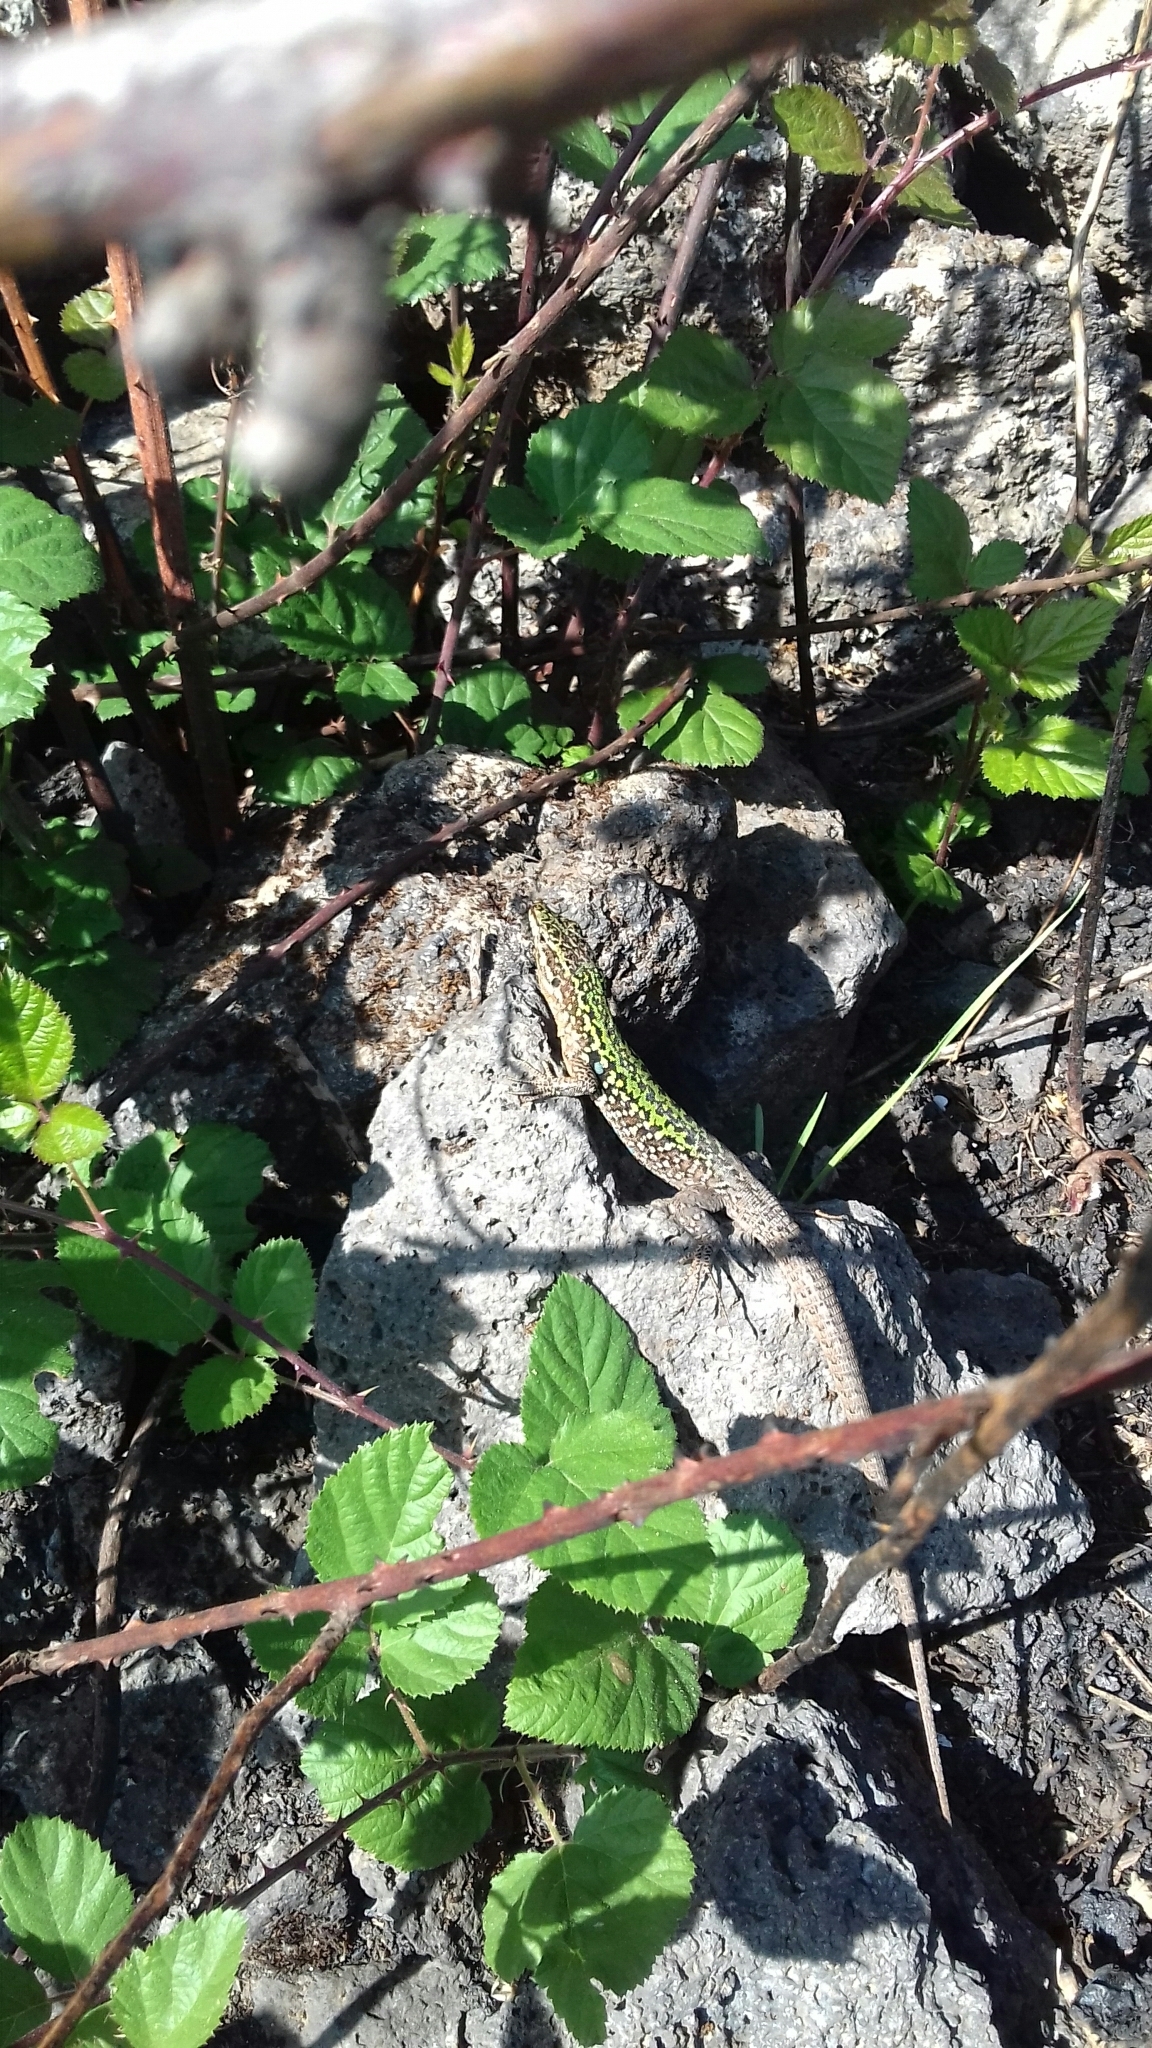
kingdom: Animalia
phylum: Chordata
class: Squamata
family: Lacertidae
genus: Podarcis
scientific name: Podarcis siculus
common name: Italian wall lizard
